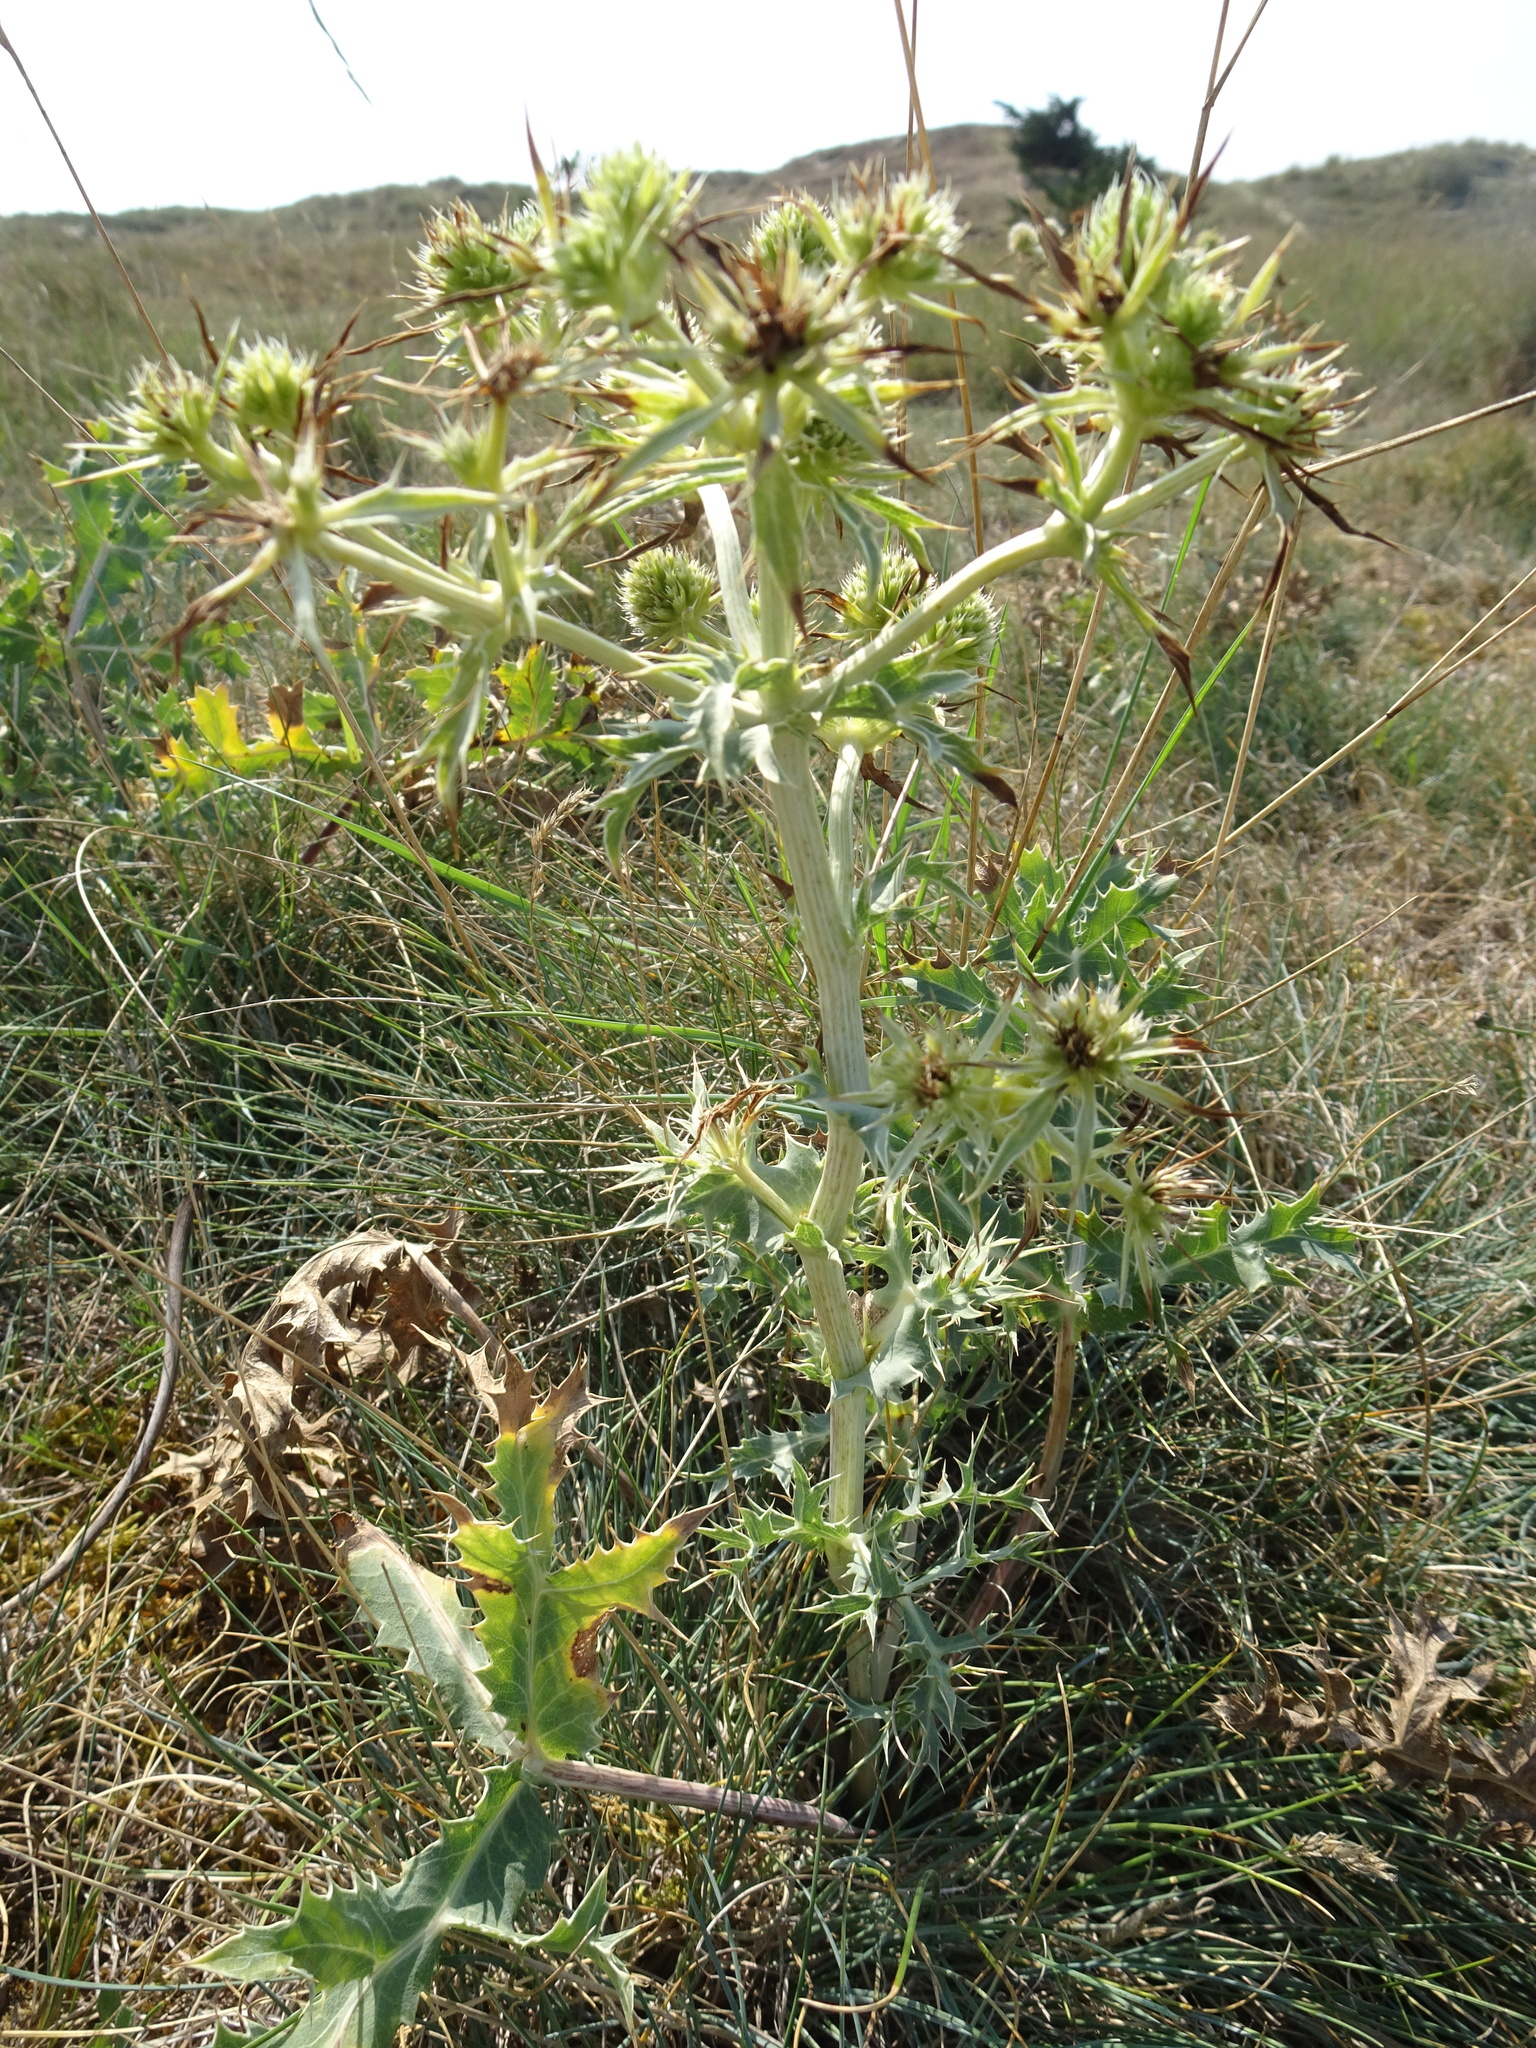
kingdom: Plantae
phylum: Tracheophyta
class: Magnoliopsida
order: Apiales
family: Apiaceae
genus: Eryngium
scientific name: Eryngium campestre
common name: Field eryngo
